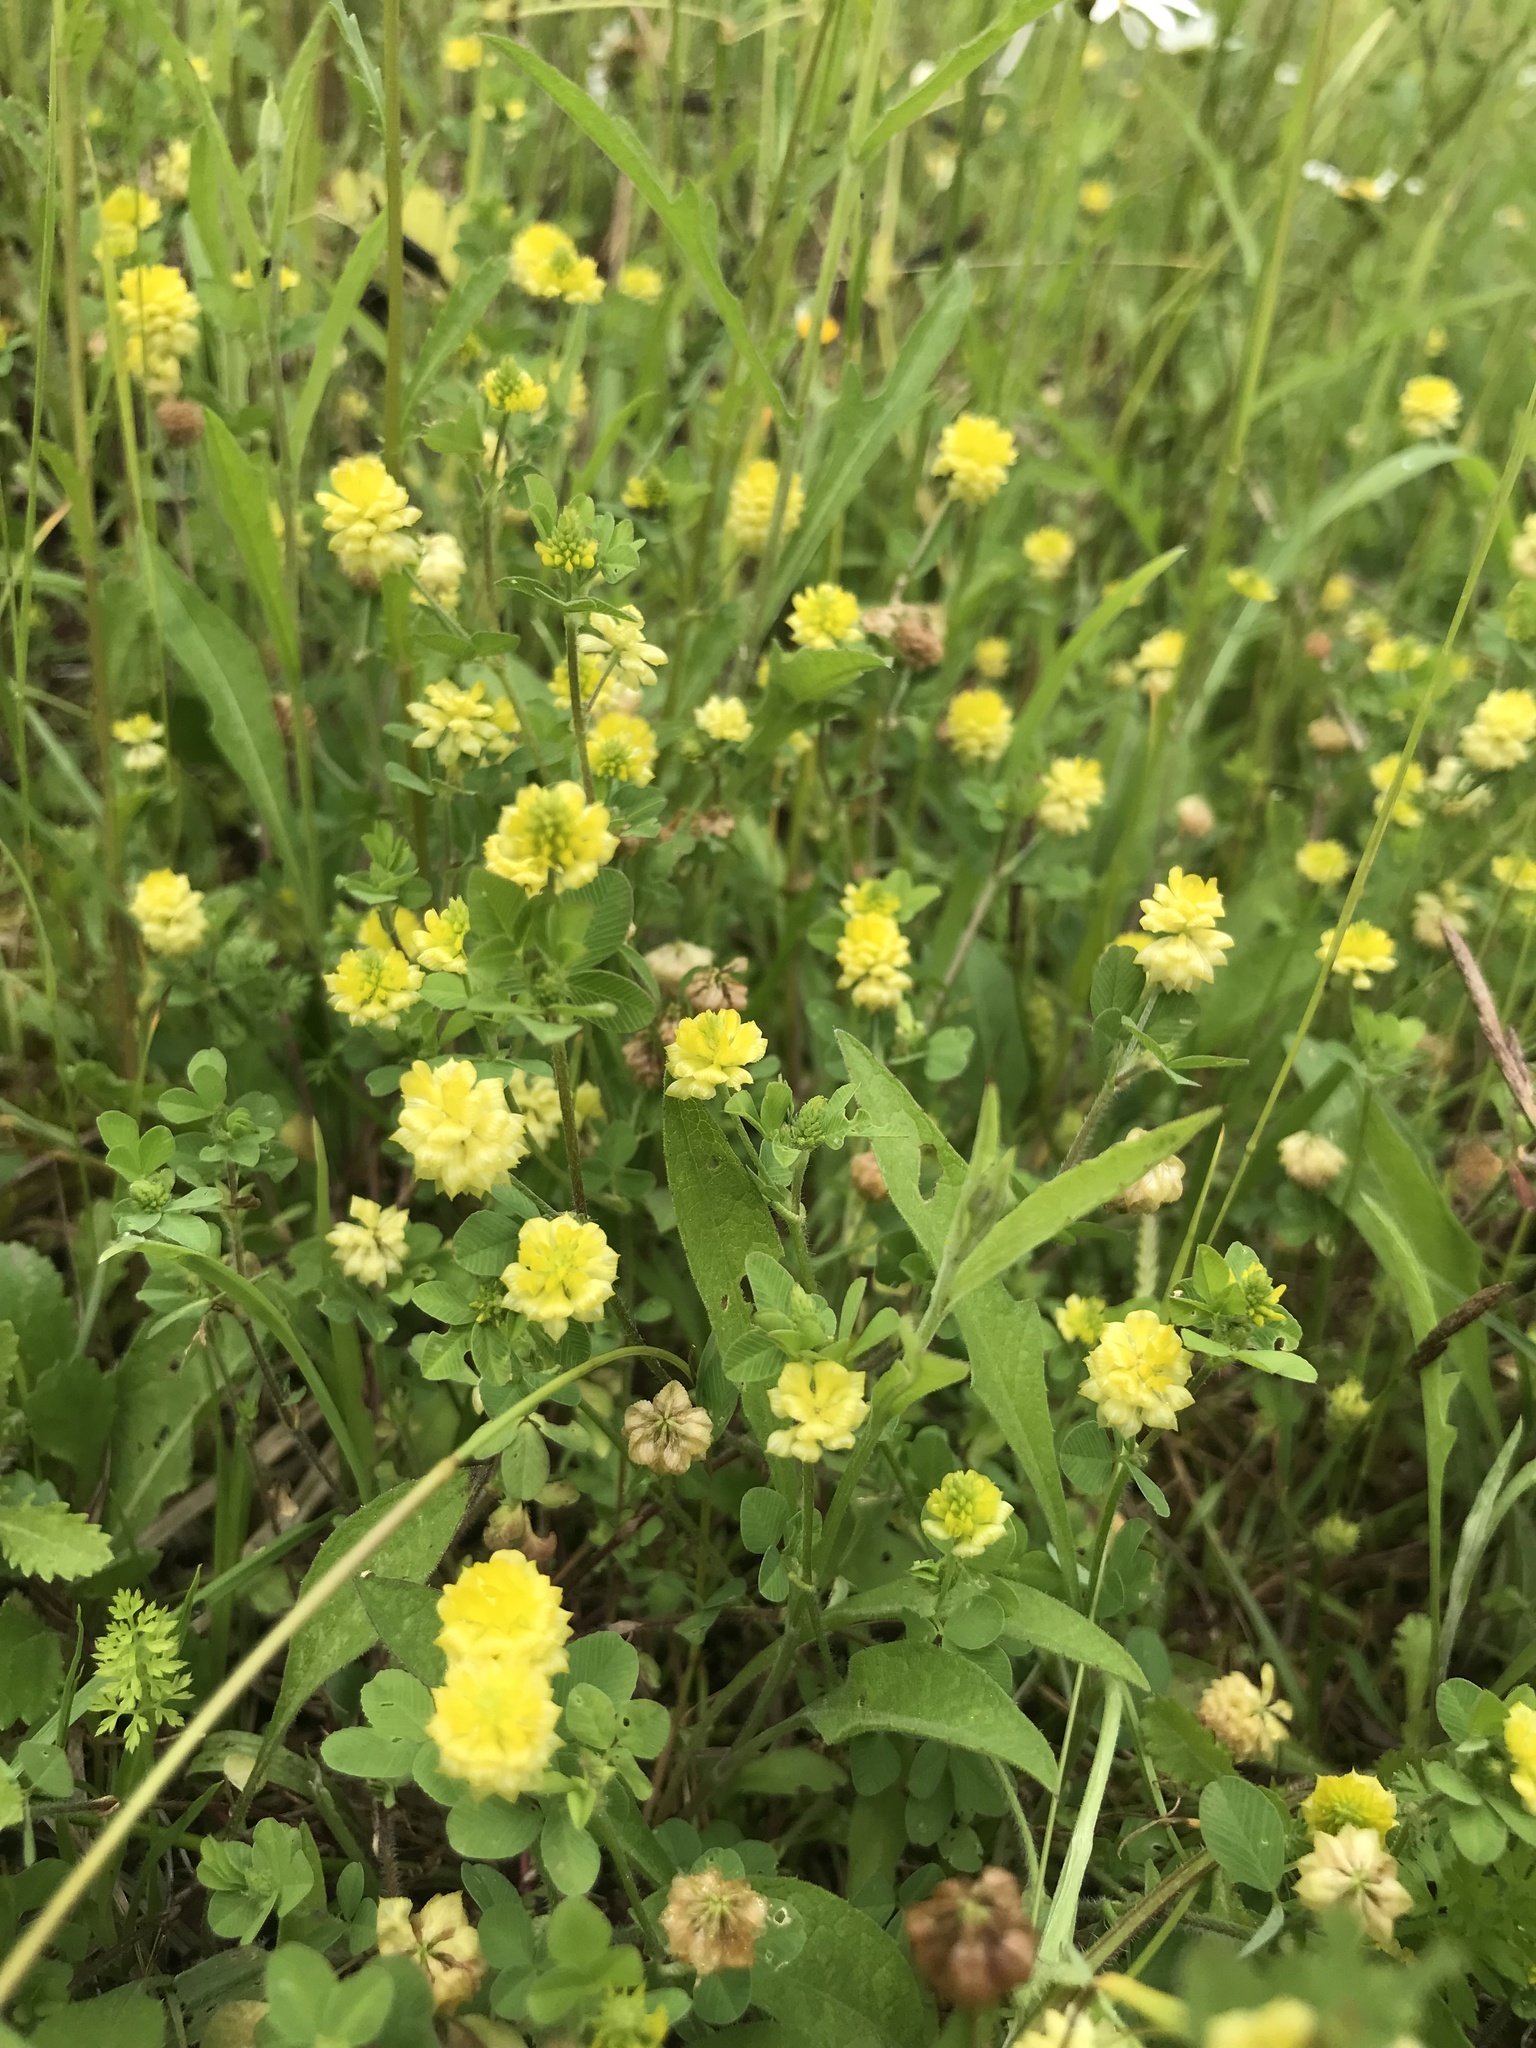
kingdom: Plantae
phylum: Tracheophyta
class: Magnoliopsida
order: Fabales
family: Fabaceae
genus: Trifolium
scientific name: Trifolium campestre
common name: Field clover
